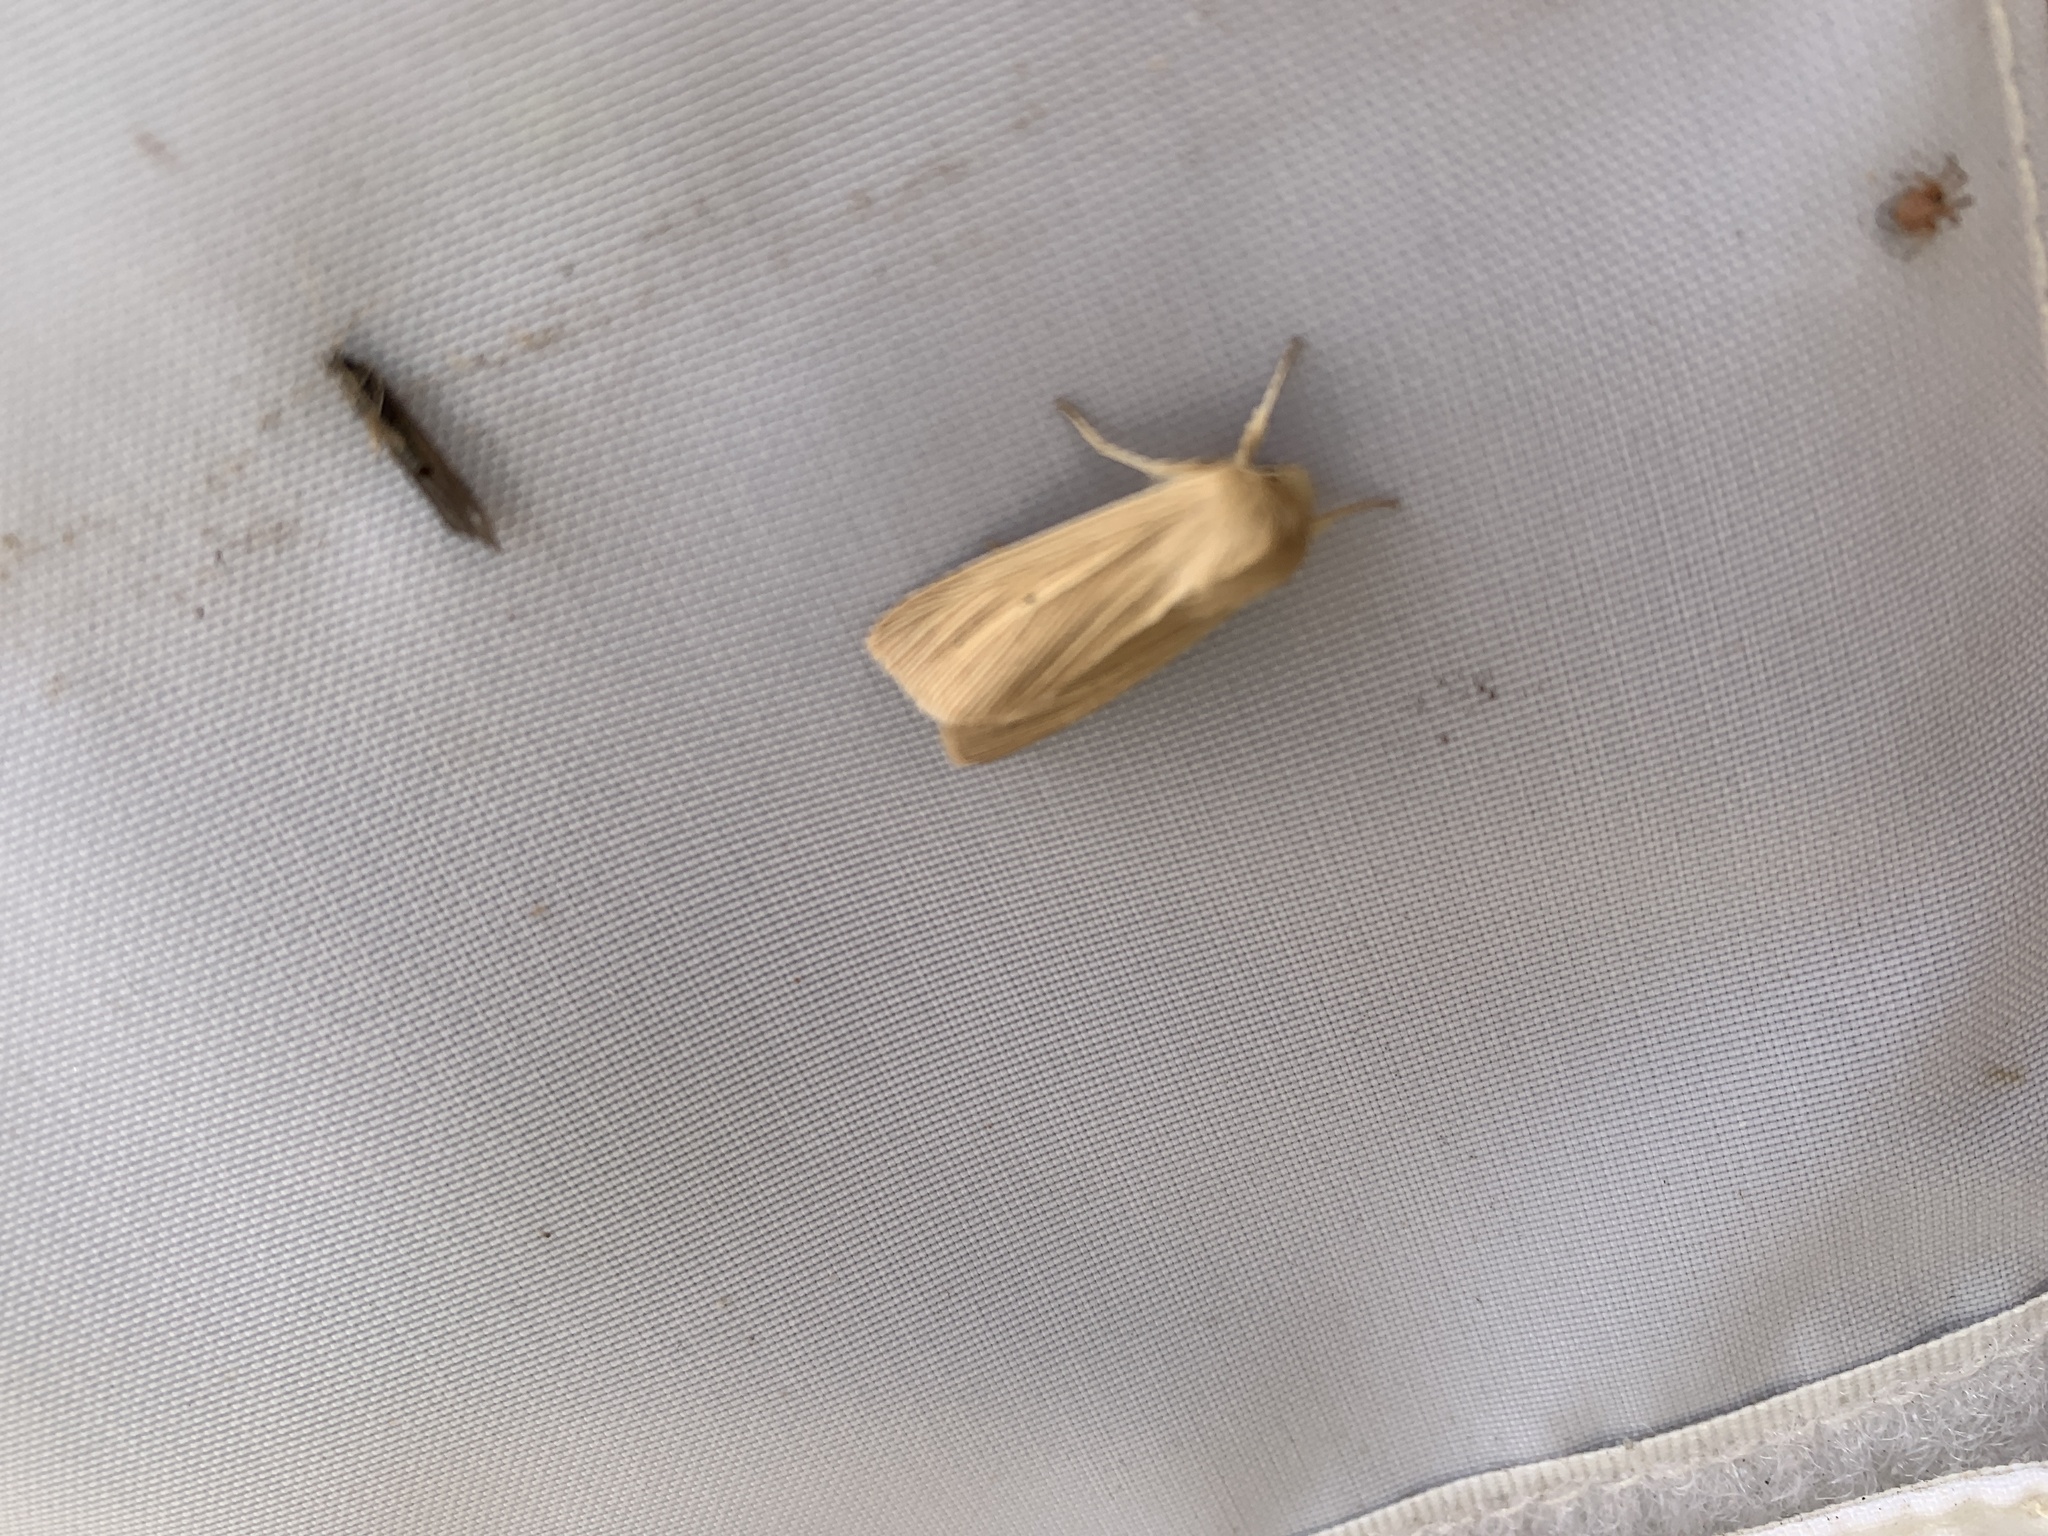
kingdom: Animalia
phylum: Arthropoda
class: Insecta
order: Lepidoptera
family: Noctuidae
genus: Mythimna
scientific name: Mythimna pallens
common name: Common wainscot
